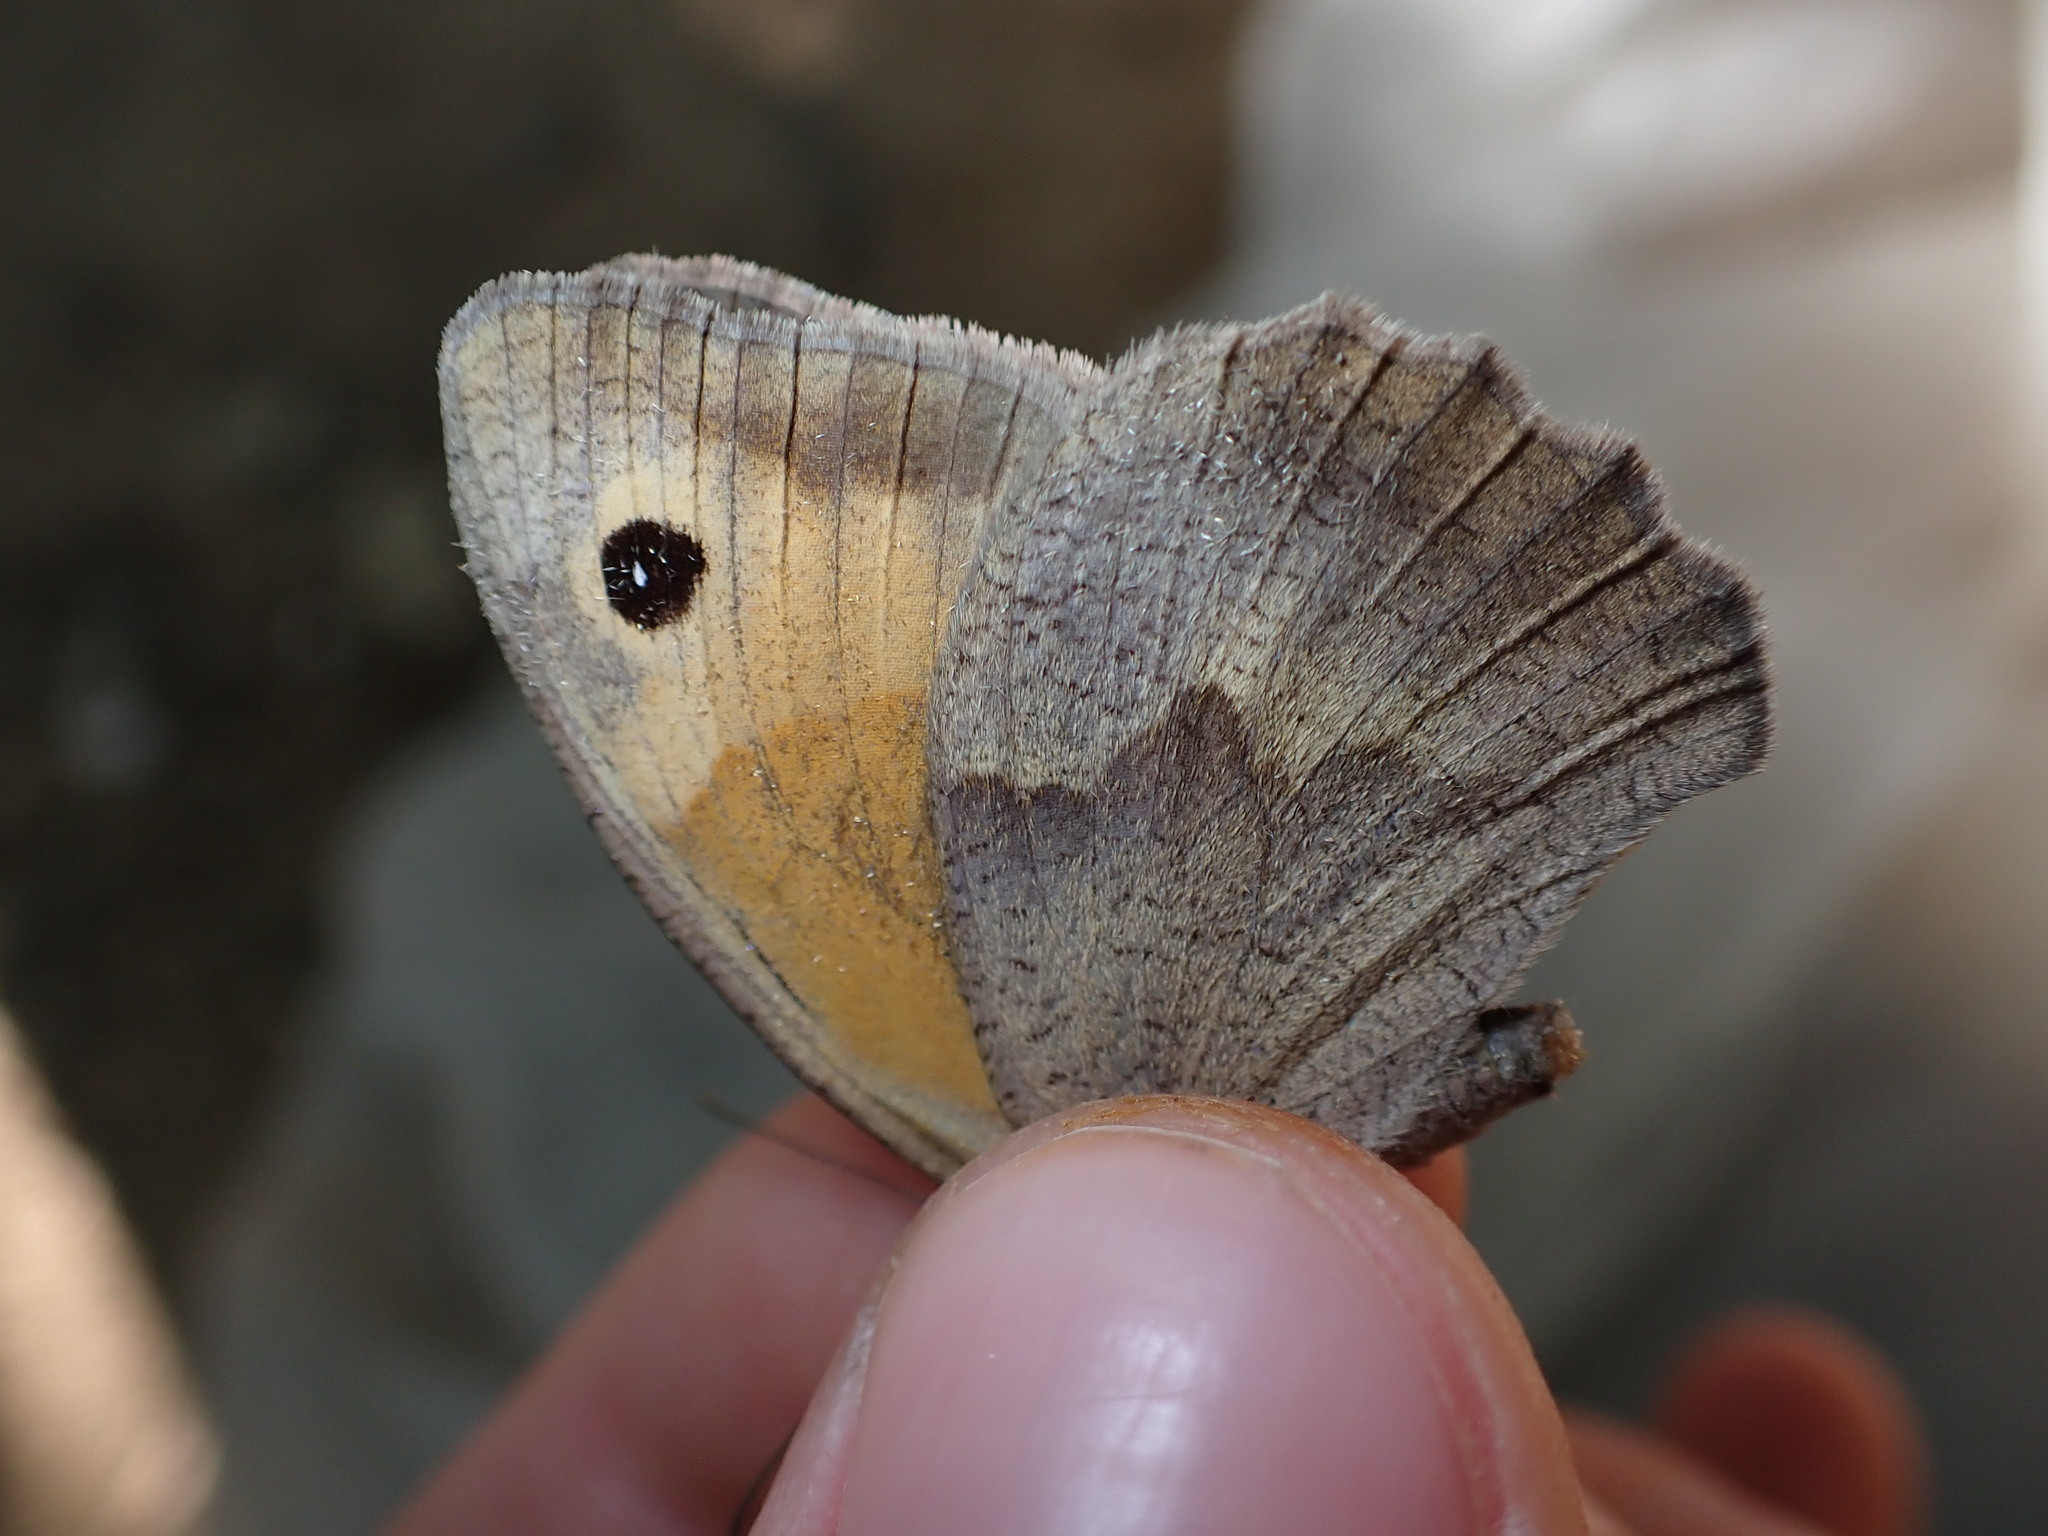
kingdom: Animalia
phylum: Arthropoda
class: Insecta
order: Lepidoptera
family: Nymphalidae
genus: Maniola
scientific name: Maniola jurtina
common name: Meadow brown
